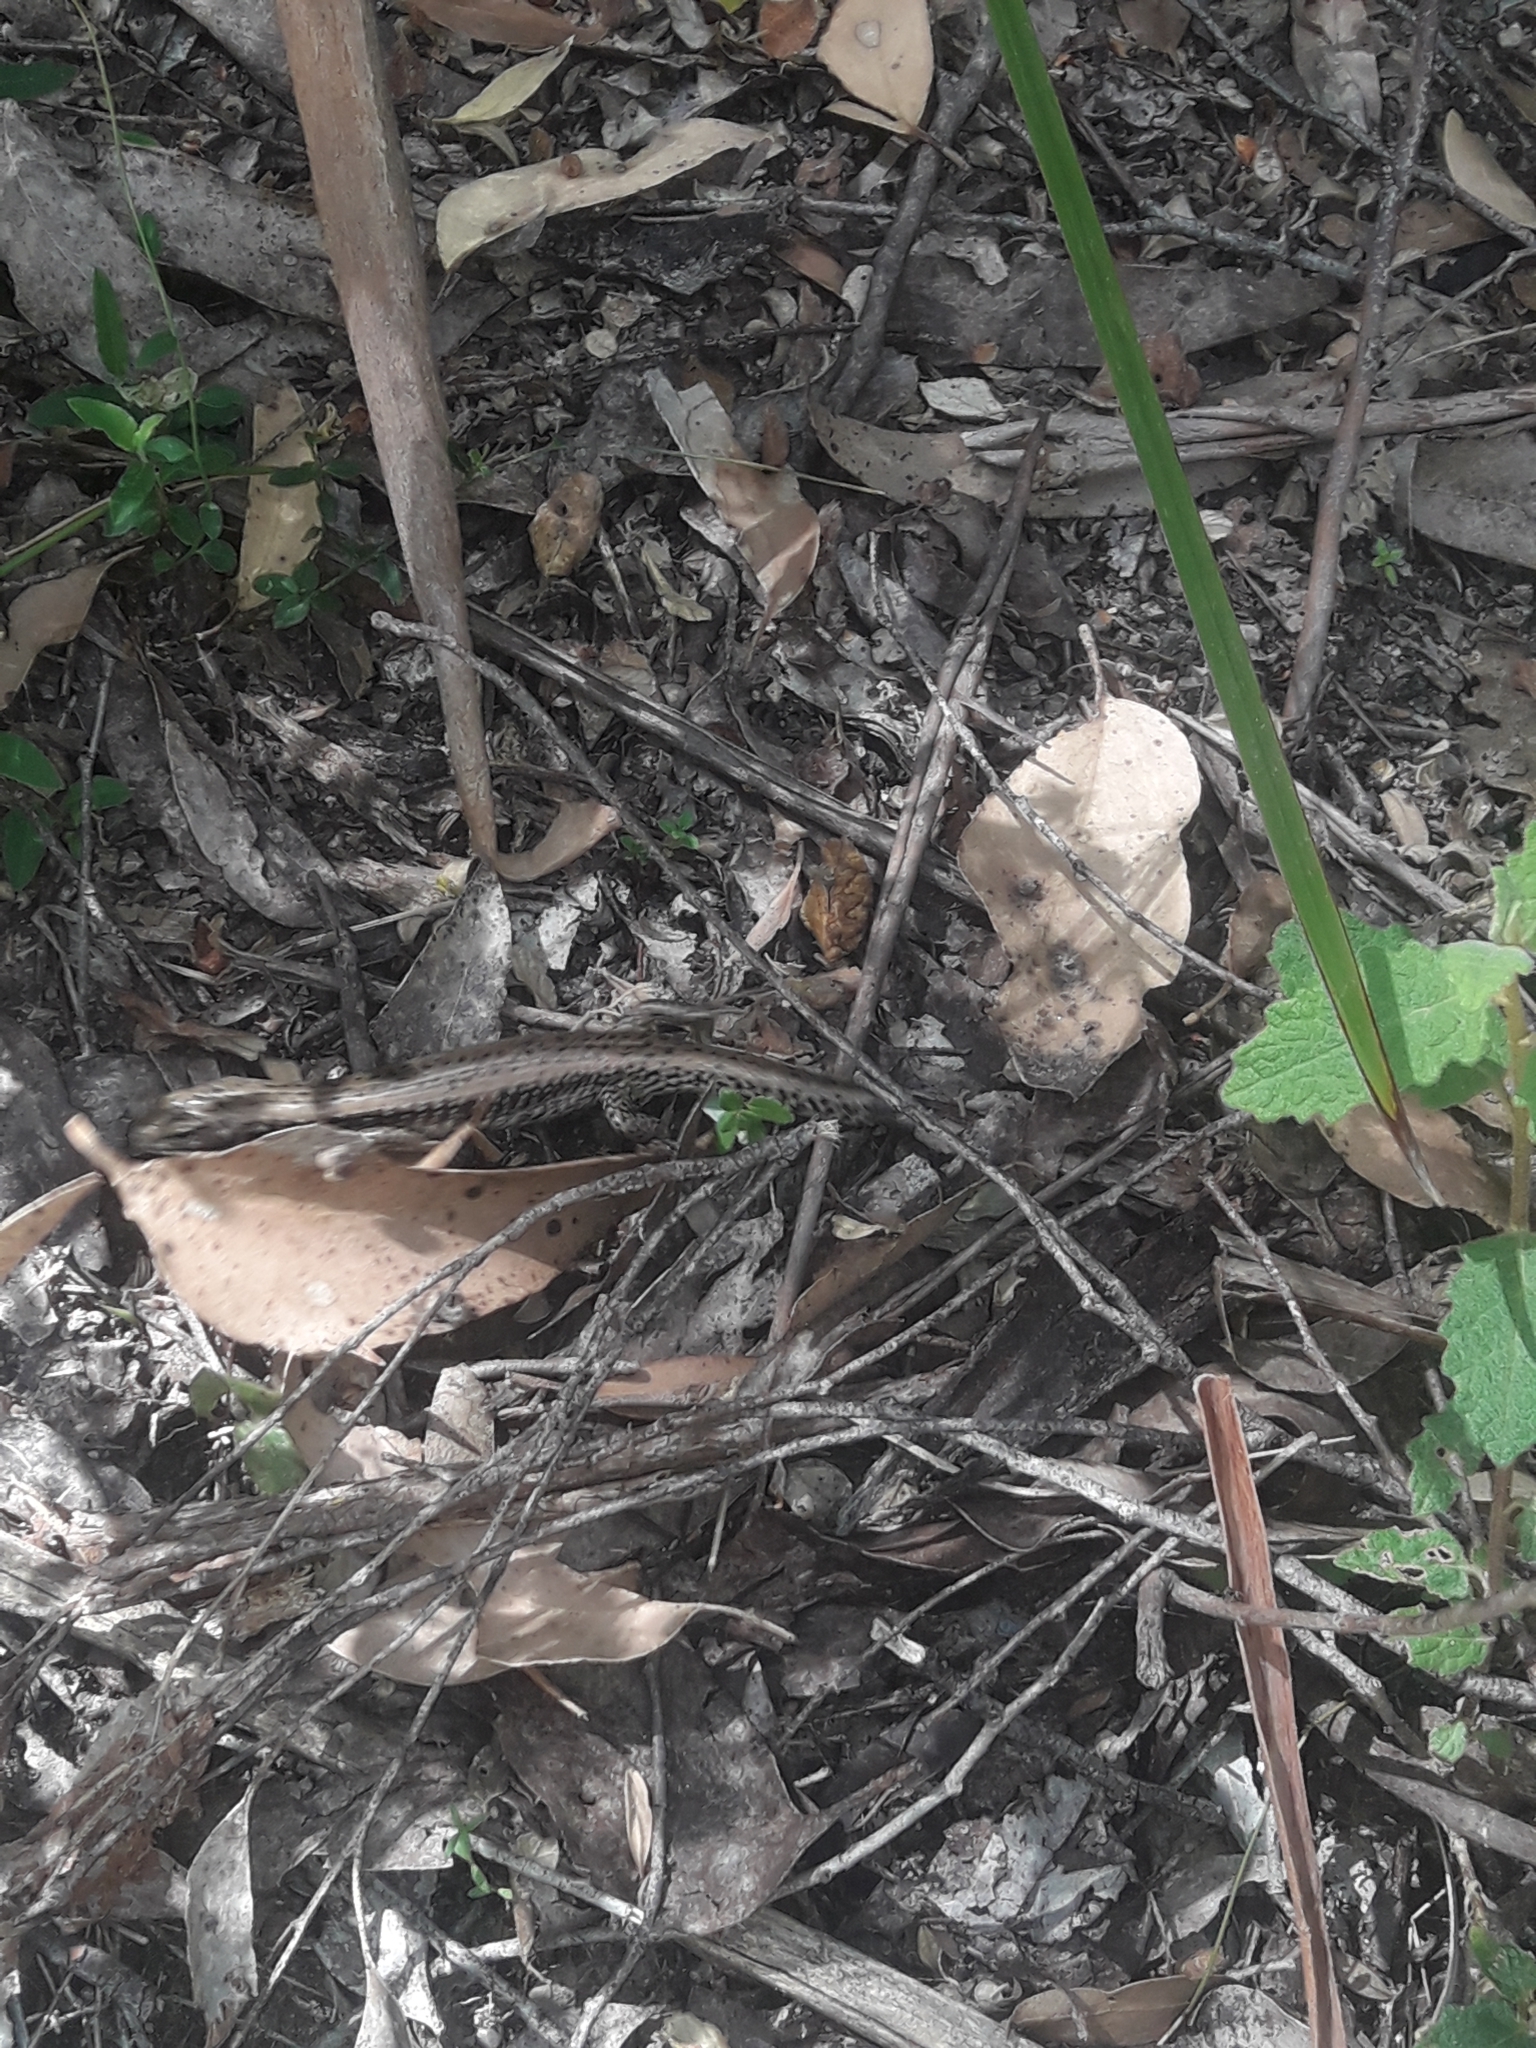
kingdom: Animalia
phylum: Chordata
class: Squamata
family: Scincidae
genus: Eulamprus
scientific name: Eulamprus tympanum
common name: Cool-temperate water-skink
